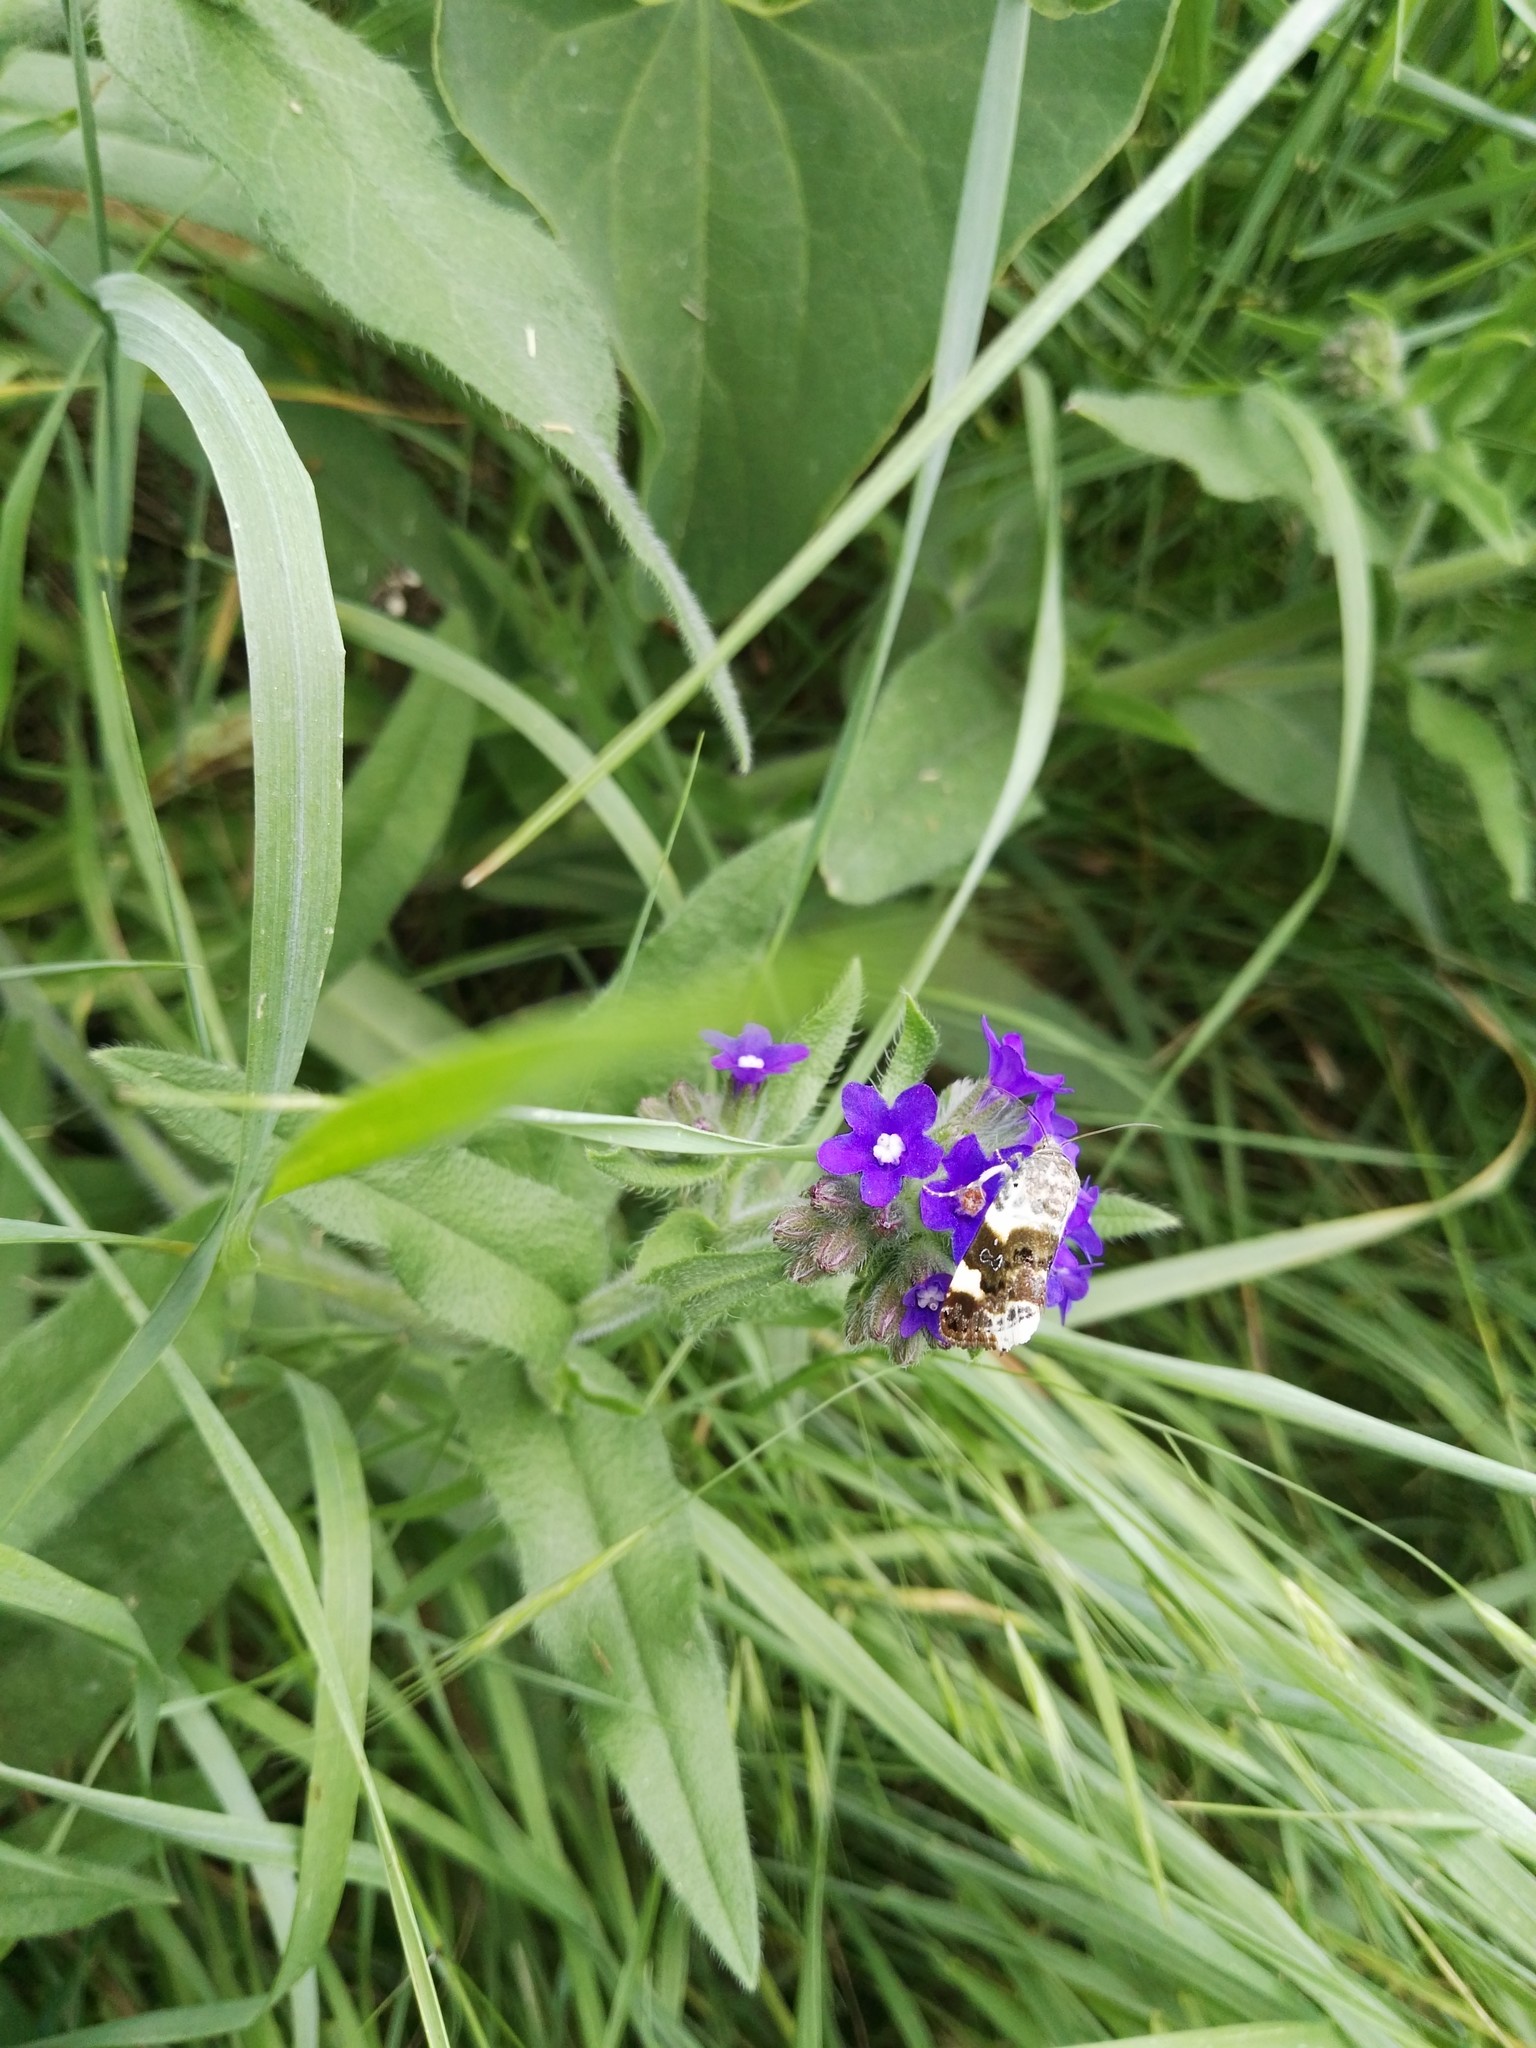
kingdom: Animalia
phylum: Arthropoda
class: Insecta
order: Lepidoptera
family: Noctuidae
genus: Acontia
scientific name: Acontia lucida
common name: Pale shoulder
